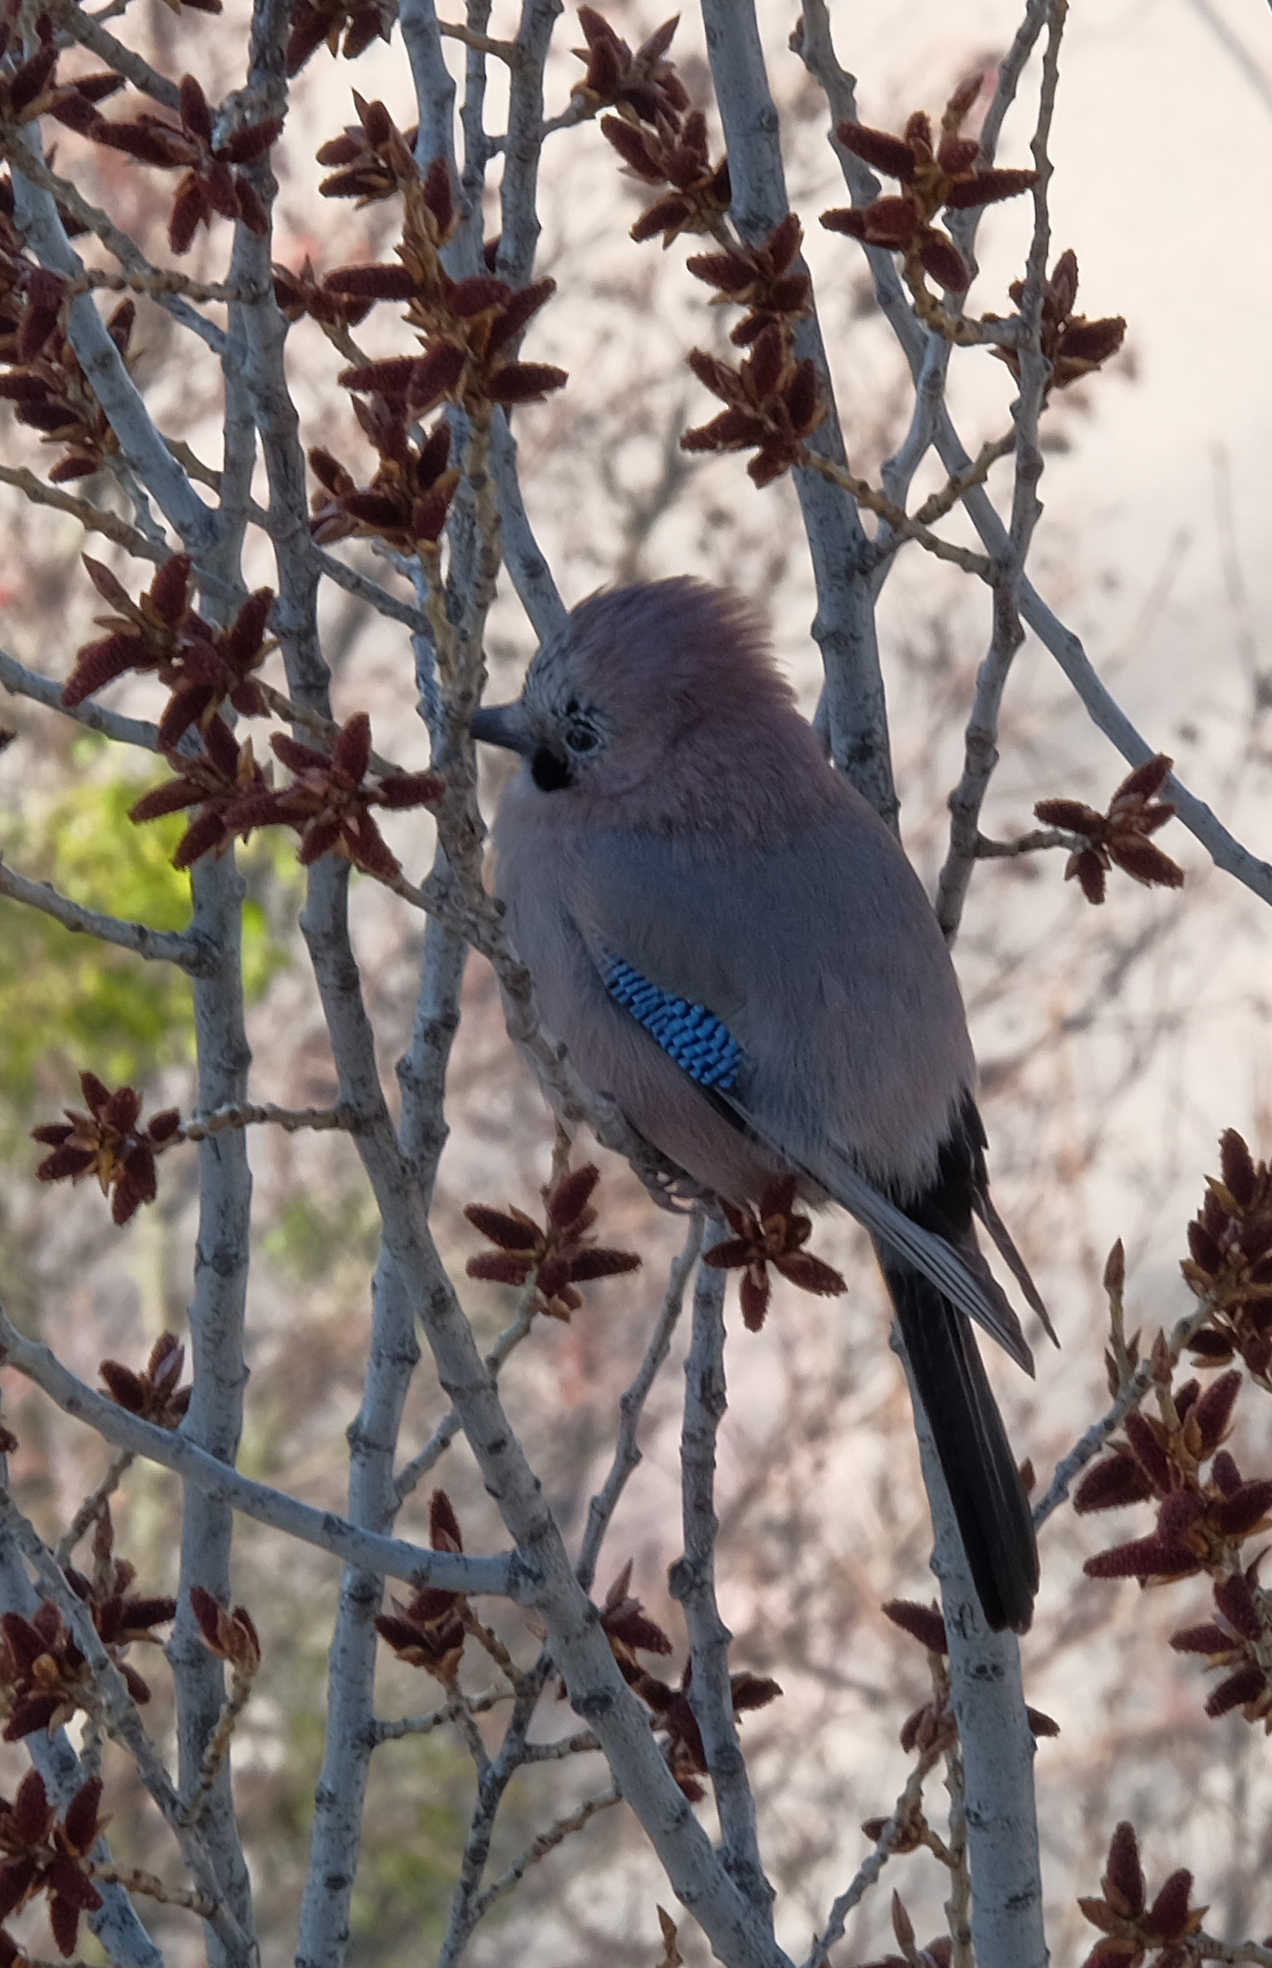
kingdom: Animalia
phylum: Chordata
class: Aves
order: Passeriformes
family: Corvidae
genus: Garrulus
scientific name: Garrulus glandarius
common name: Eurasian jay
